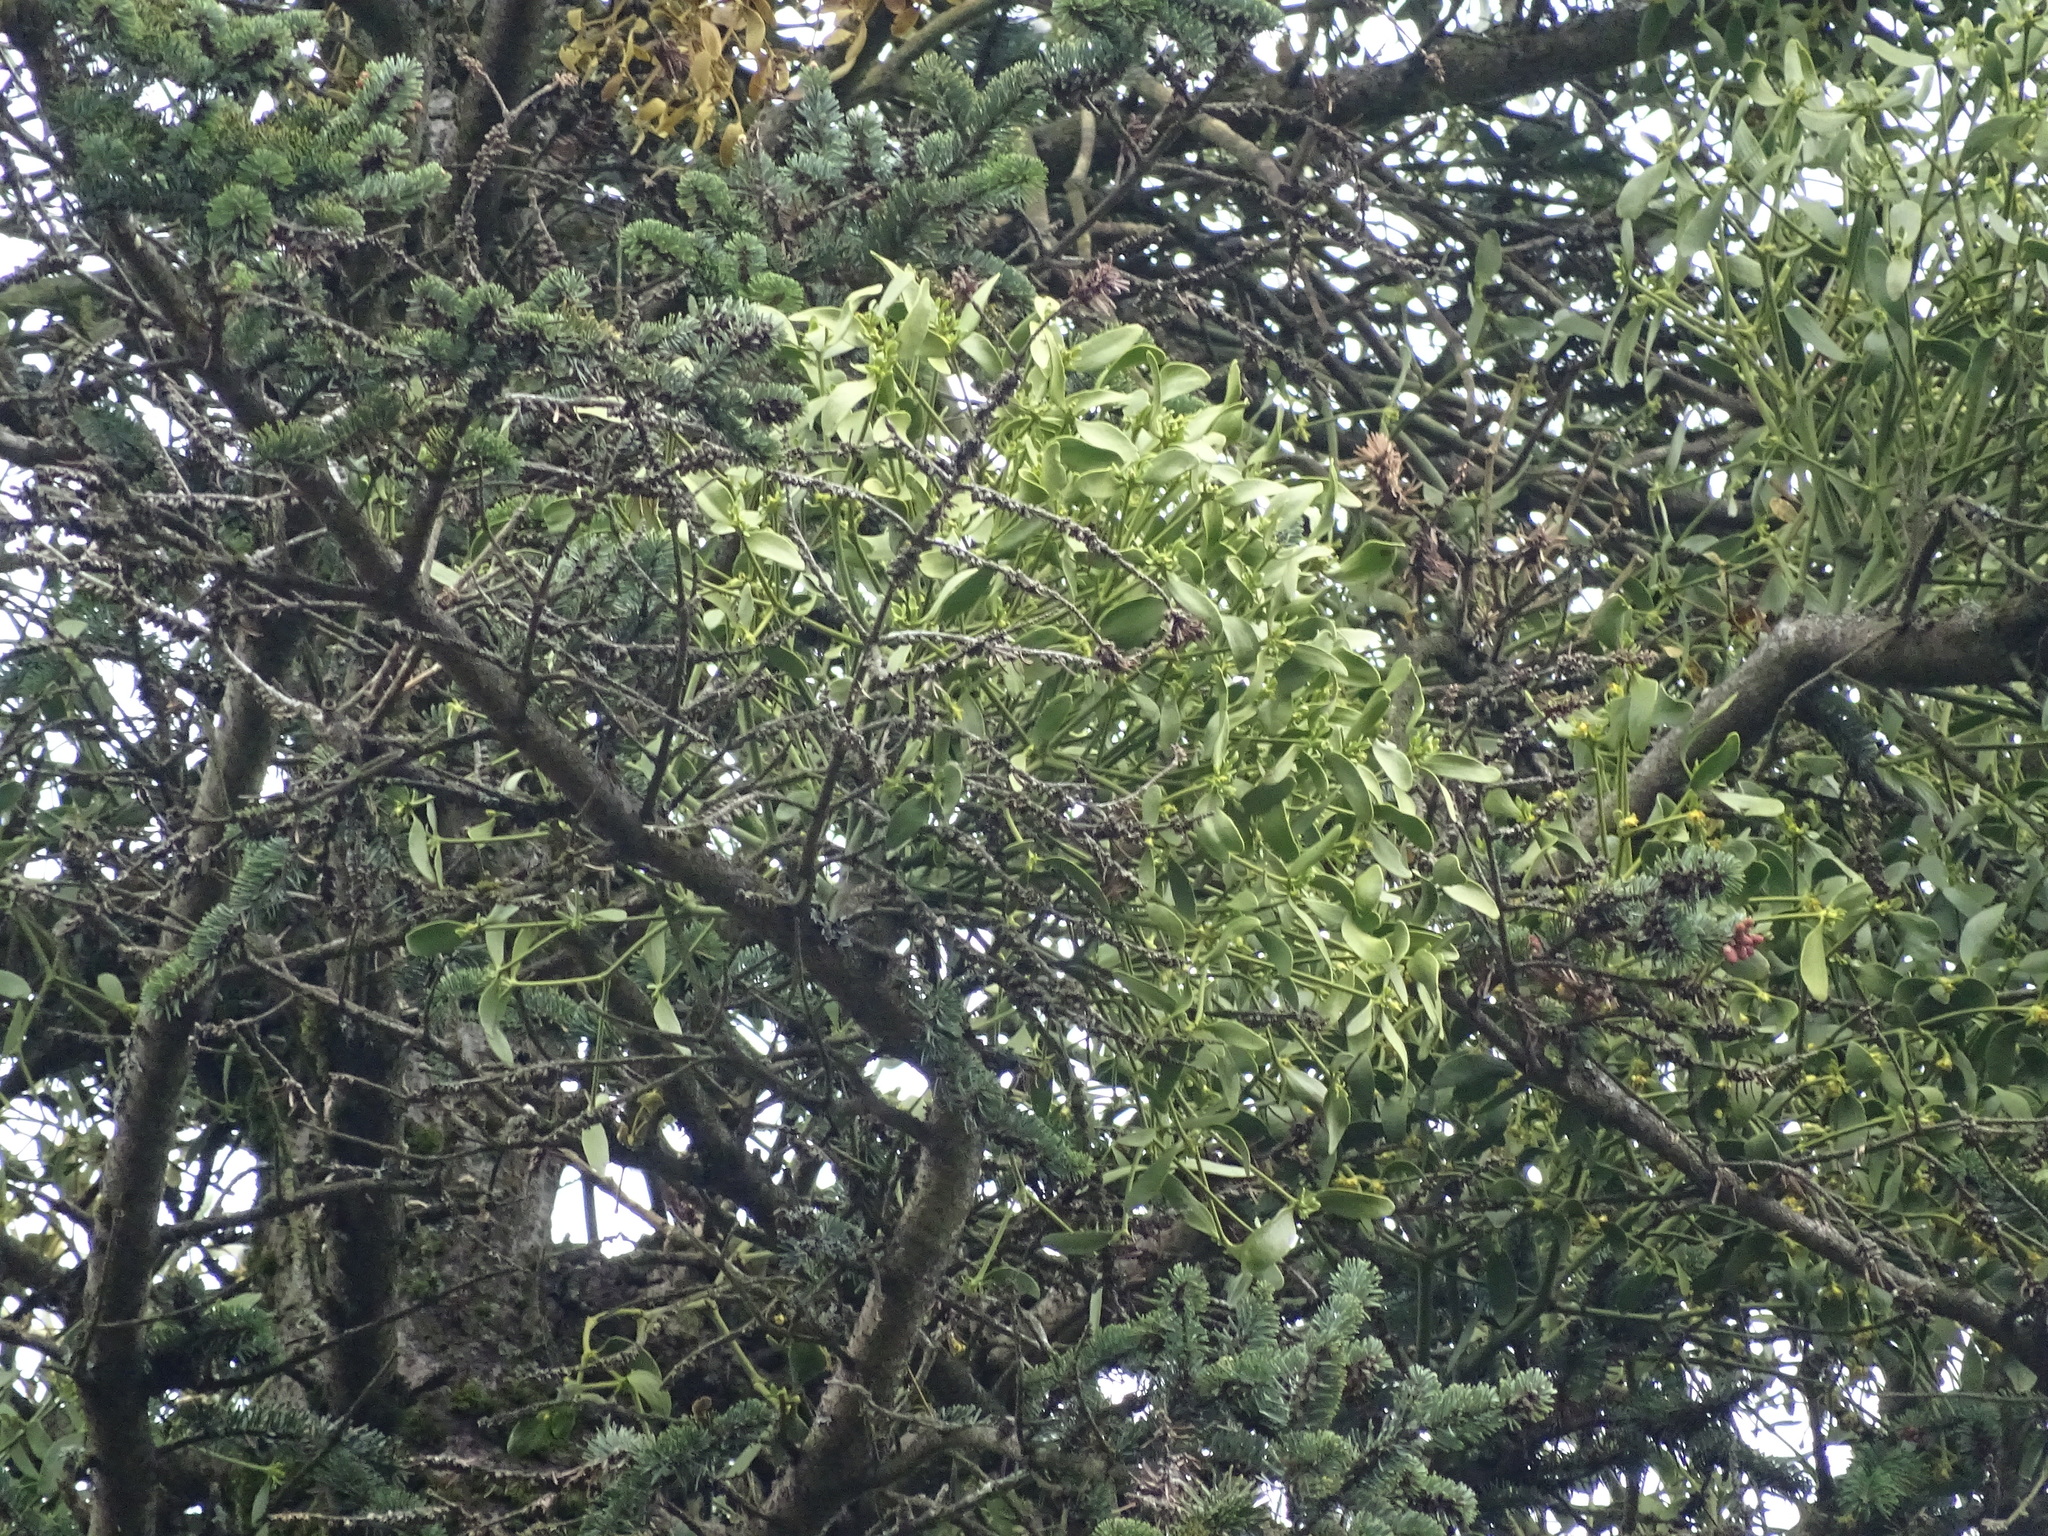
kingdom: Plantae
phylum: Tracheophyta
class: Magnoliopsida
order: Santalales
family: Viscaceae
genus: Viscum
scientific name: Viscum album
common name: Mistletoe
